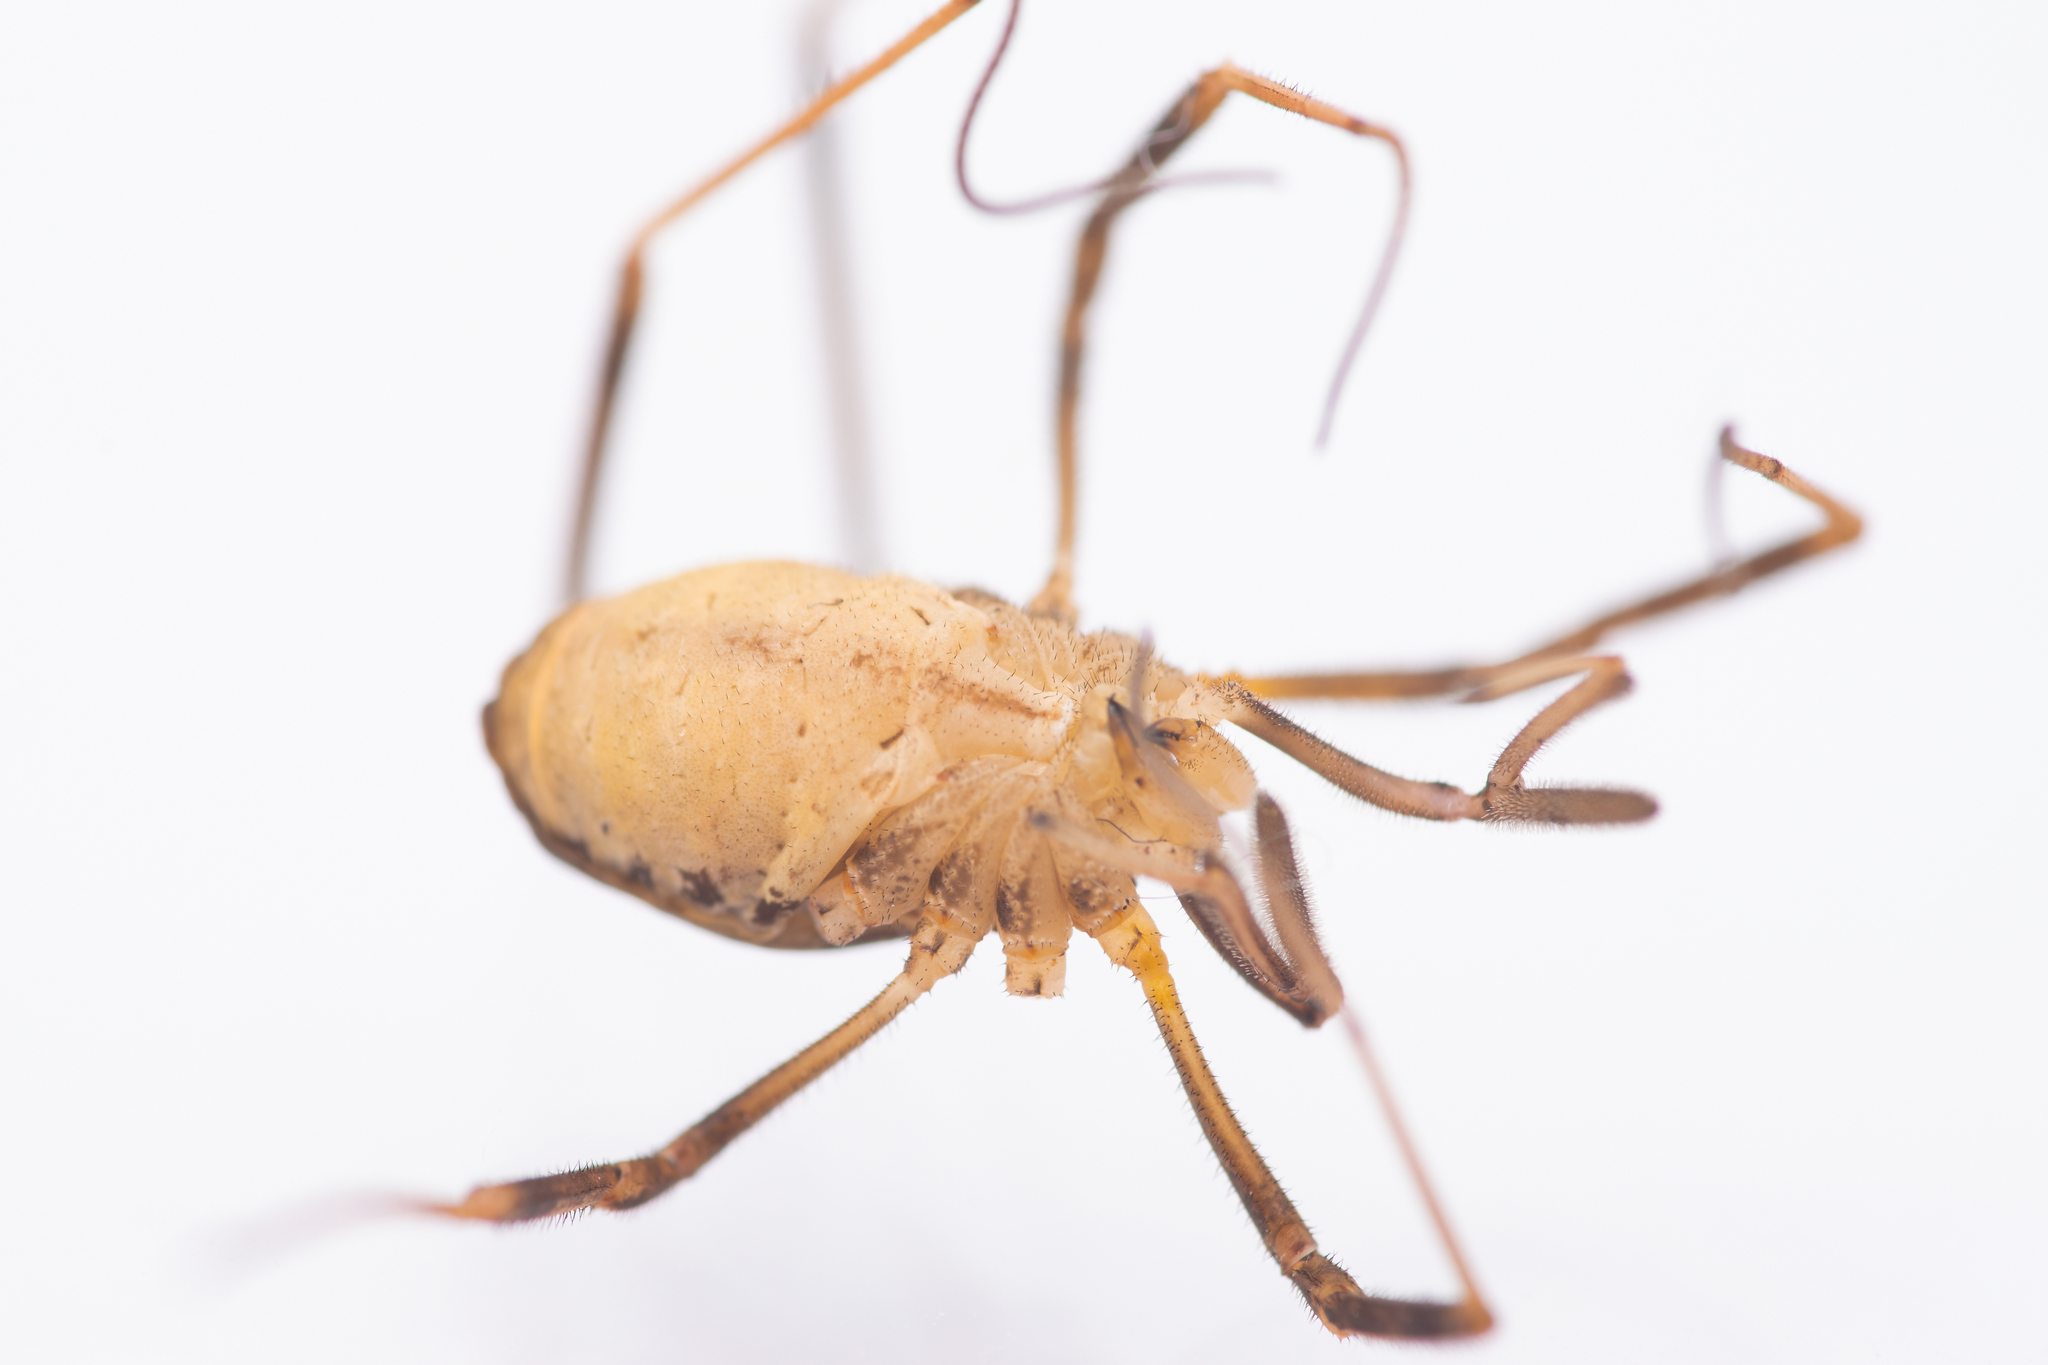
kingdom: Animalia
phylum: Arthropoda
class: Arachnida
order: Opiliones
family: Phalangiidae
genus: Dicranopalpus
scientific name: Dicranopalpus pulchellus
